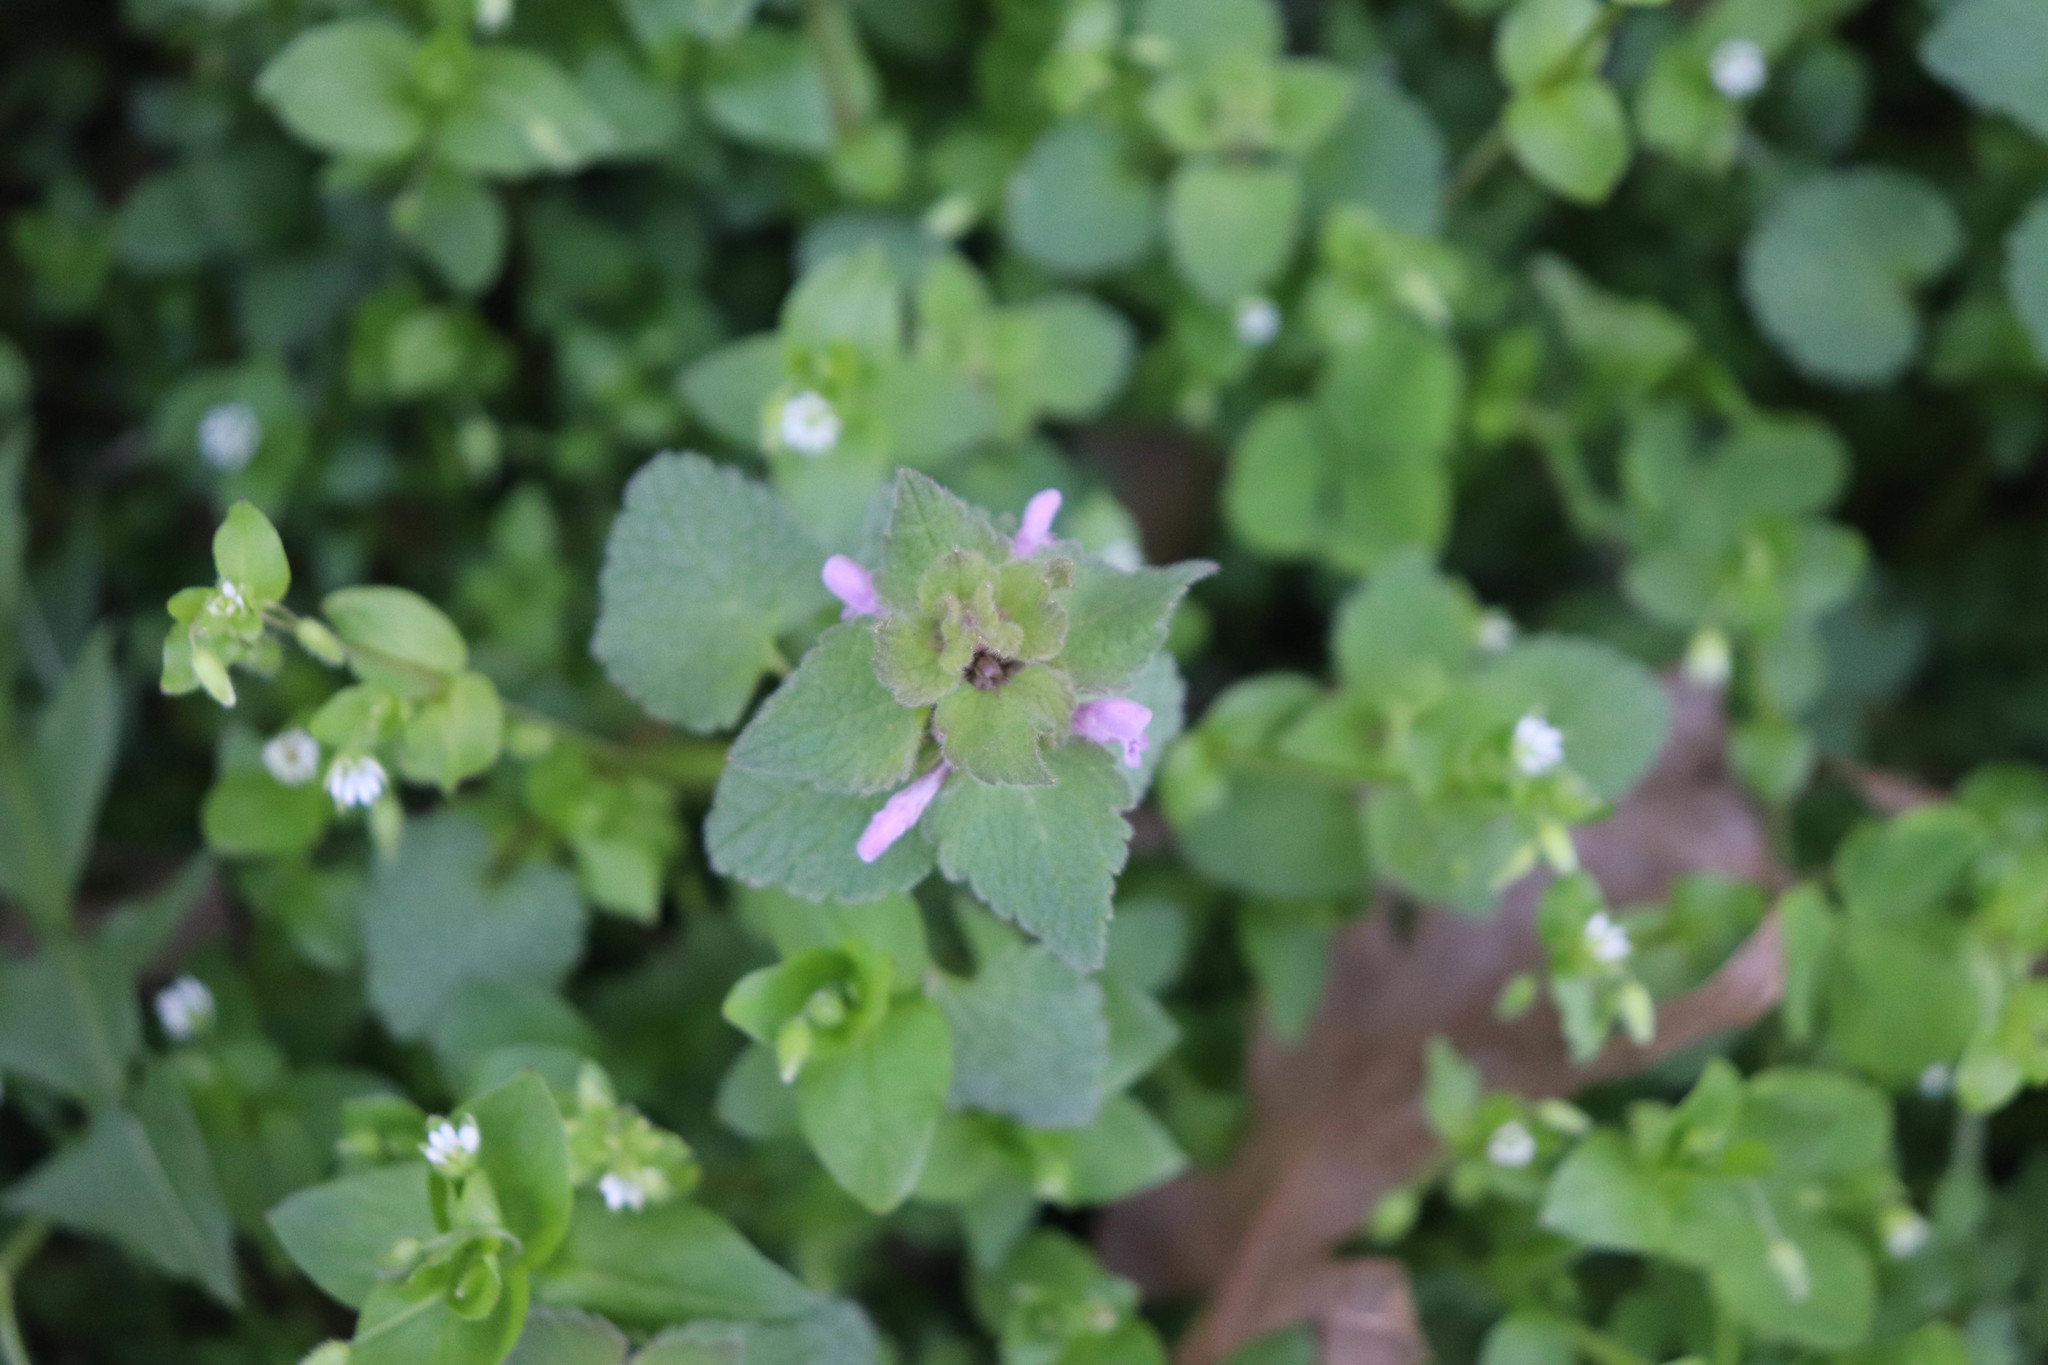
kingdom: Plantae
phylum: Tracheophyta
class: Magnoliopsida
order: Lamiales
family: Lamiaceae
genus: Lamium
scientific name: Lamium purpureum
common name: Red dead-nettle
